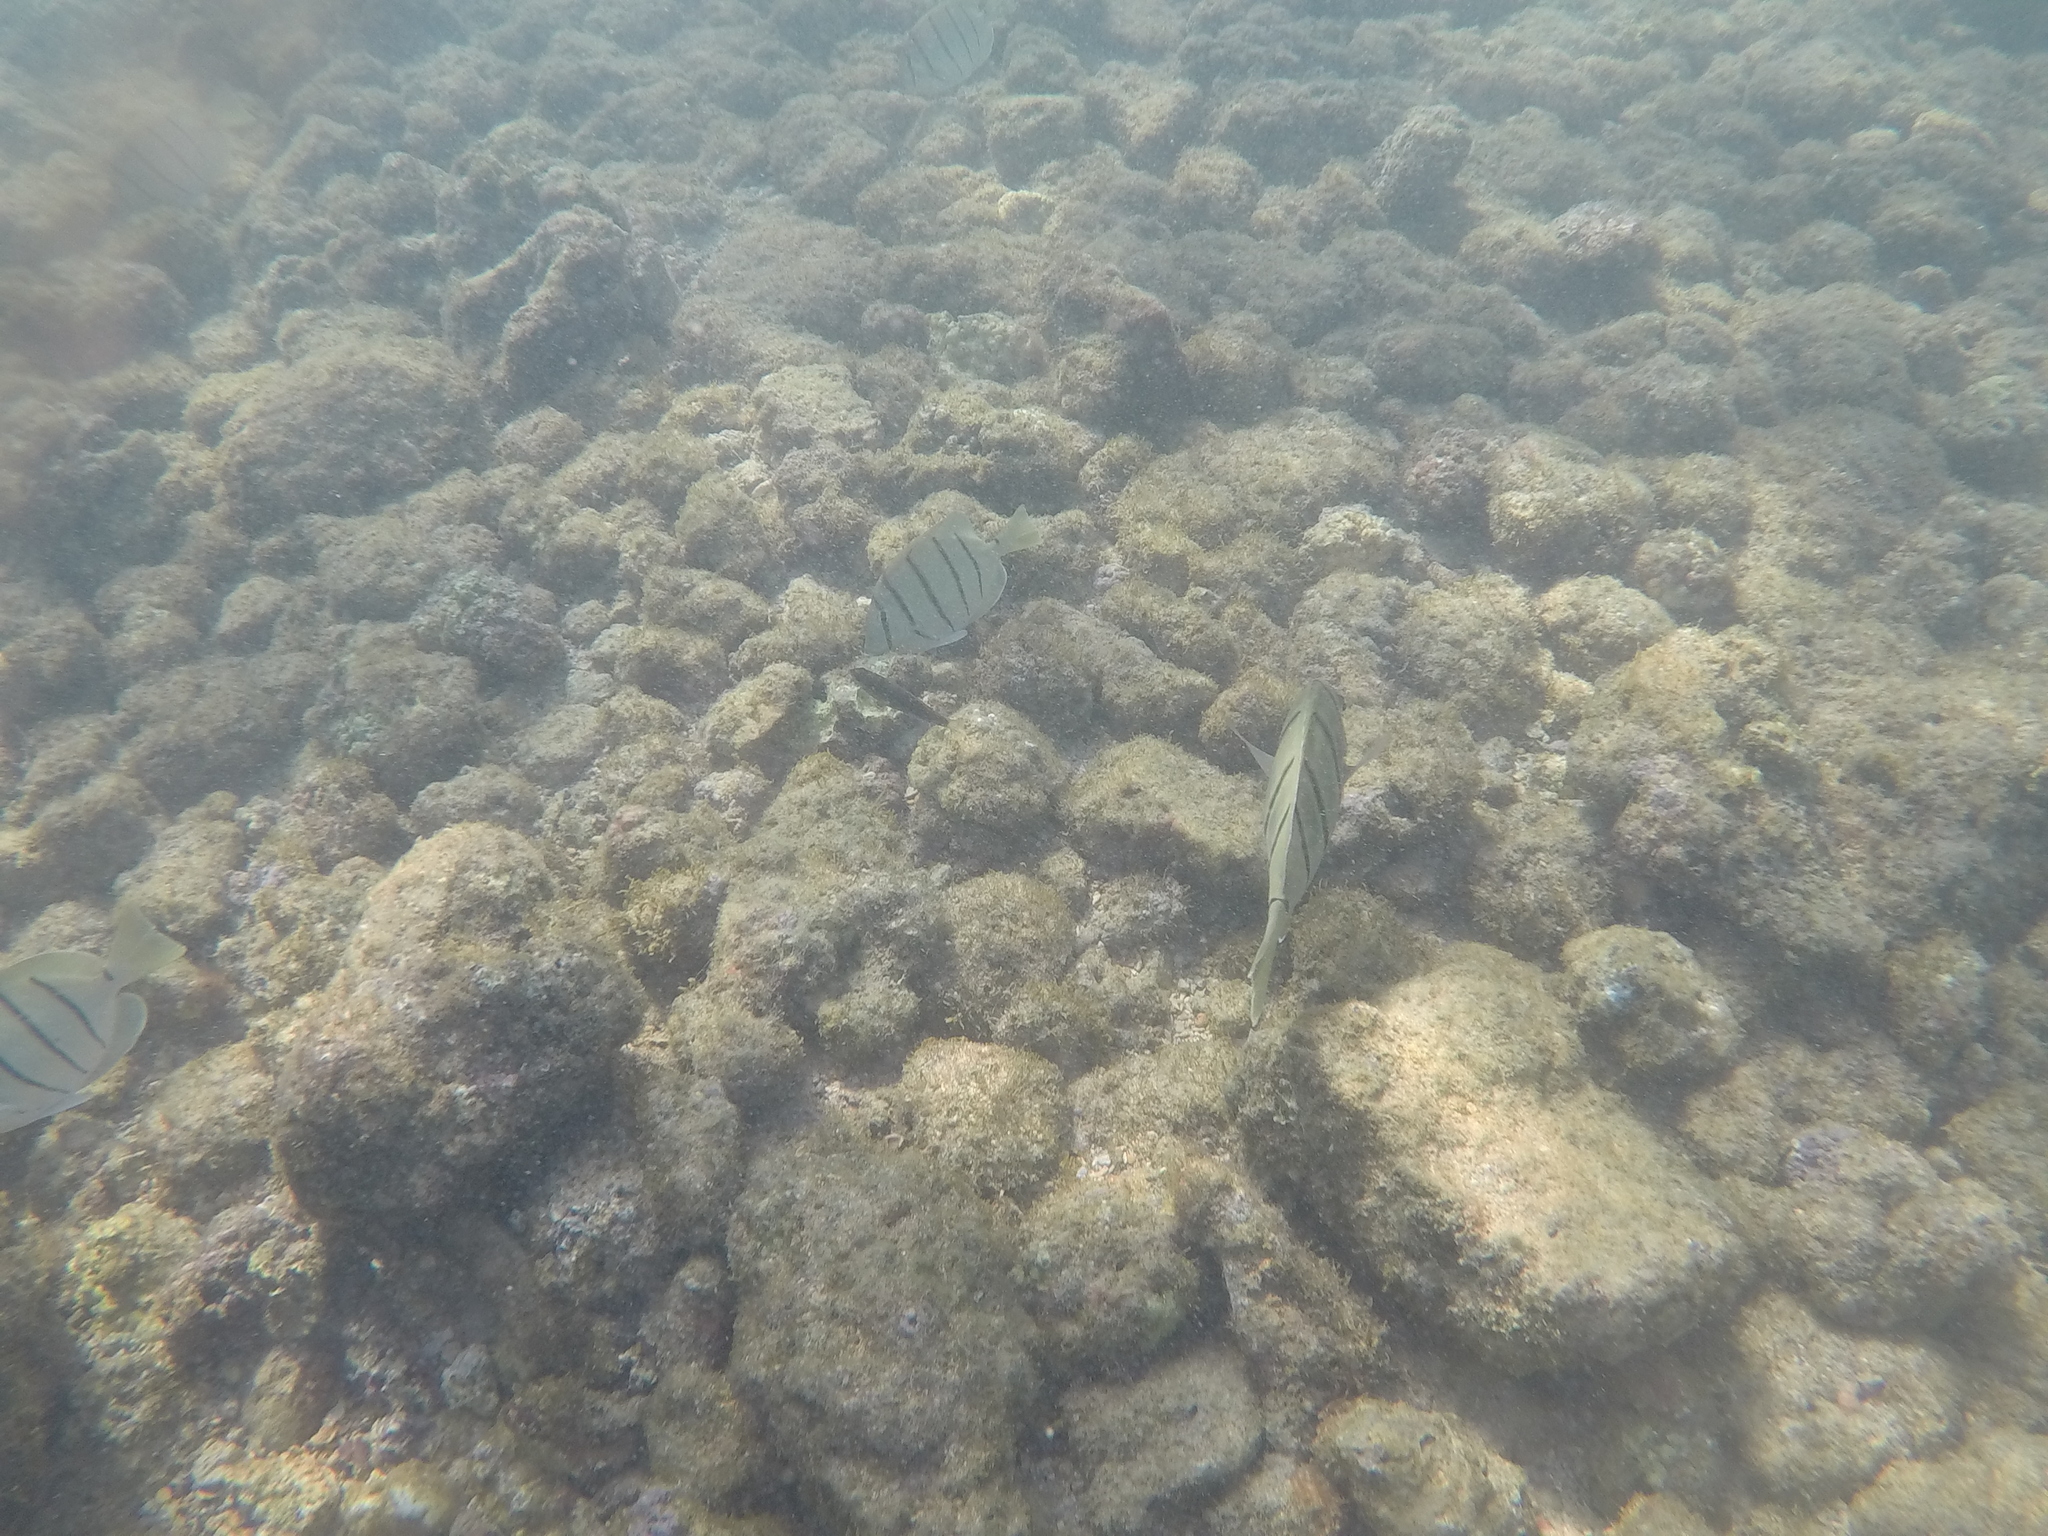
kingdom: Animalia
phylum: Chordata
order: Perciformes
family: Acanthuridae
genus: Acanthurus
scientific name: Acanthurus triostegus
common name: Convict surgeonfish
